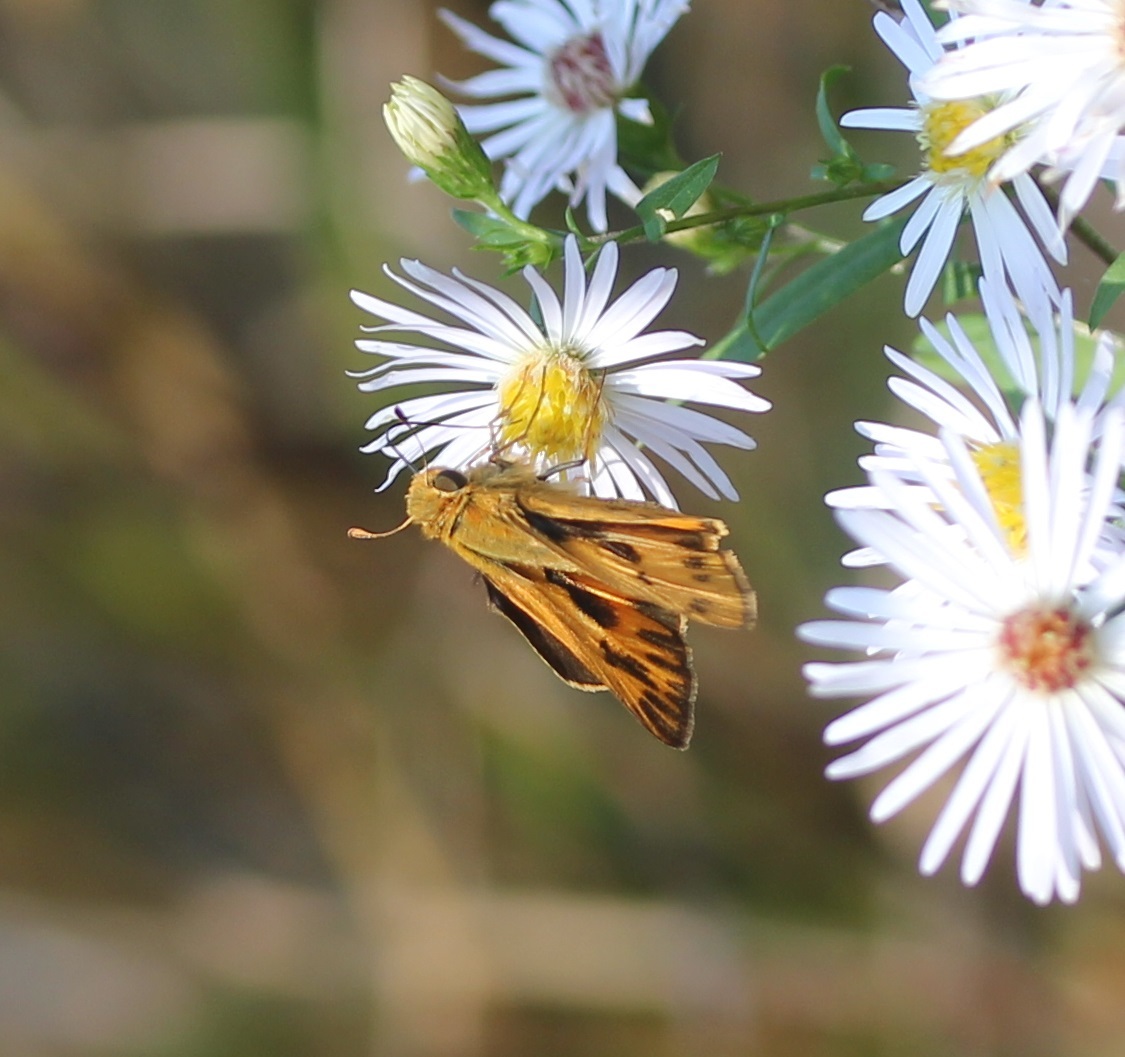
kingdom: Animalia
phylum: Arthropoda
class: Insecta
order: Lepidoptera
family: Hesperiidae
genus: Hylephila
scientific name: Hylephila phyleus
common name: Fiery skipper
